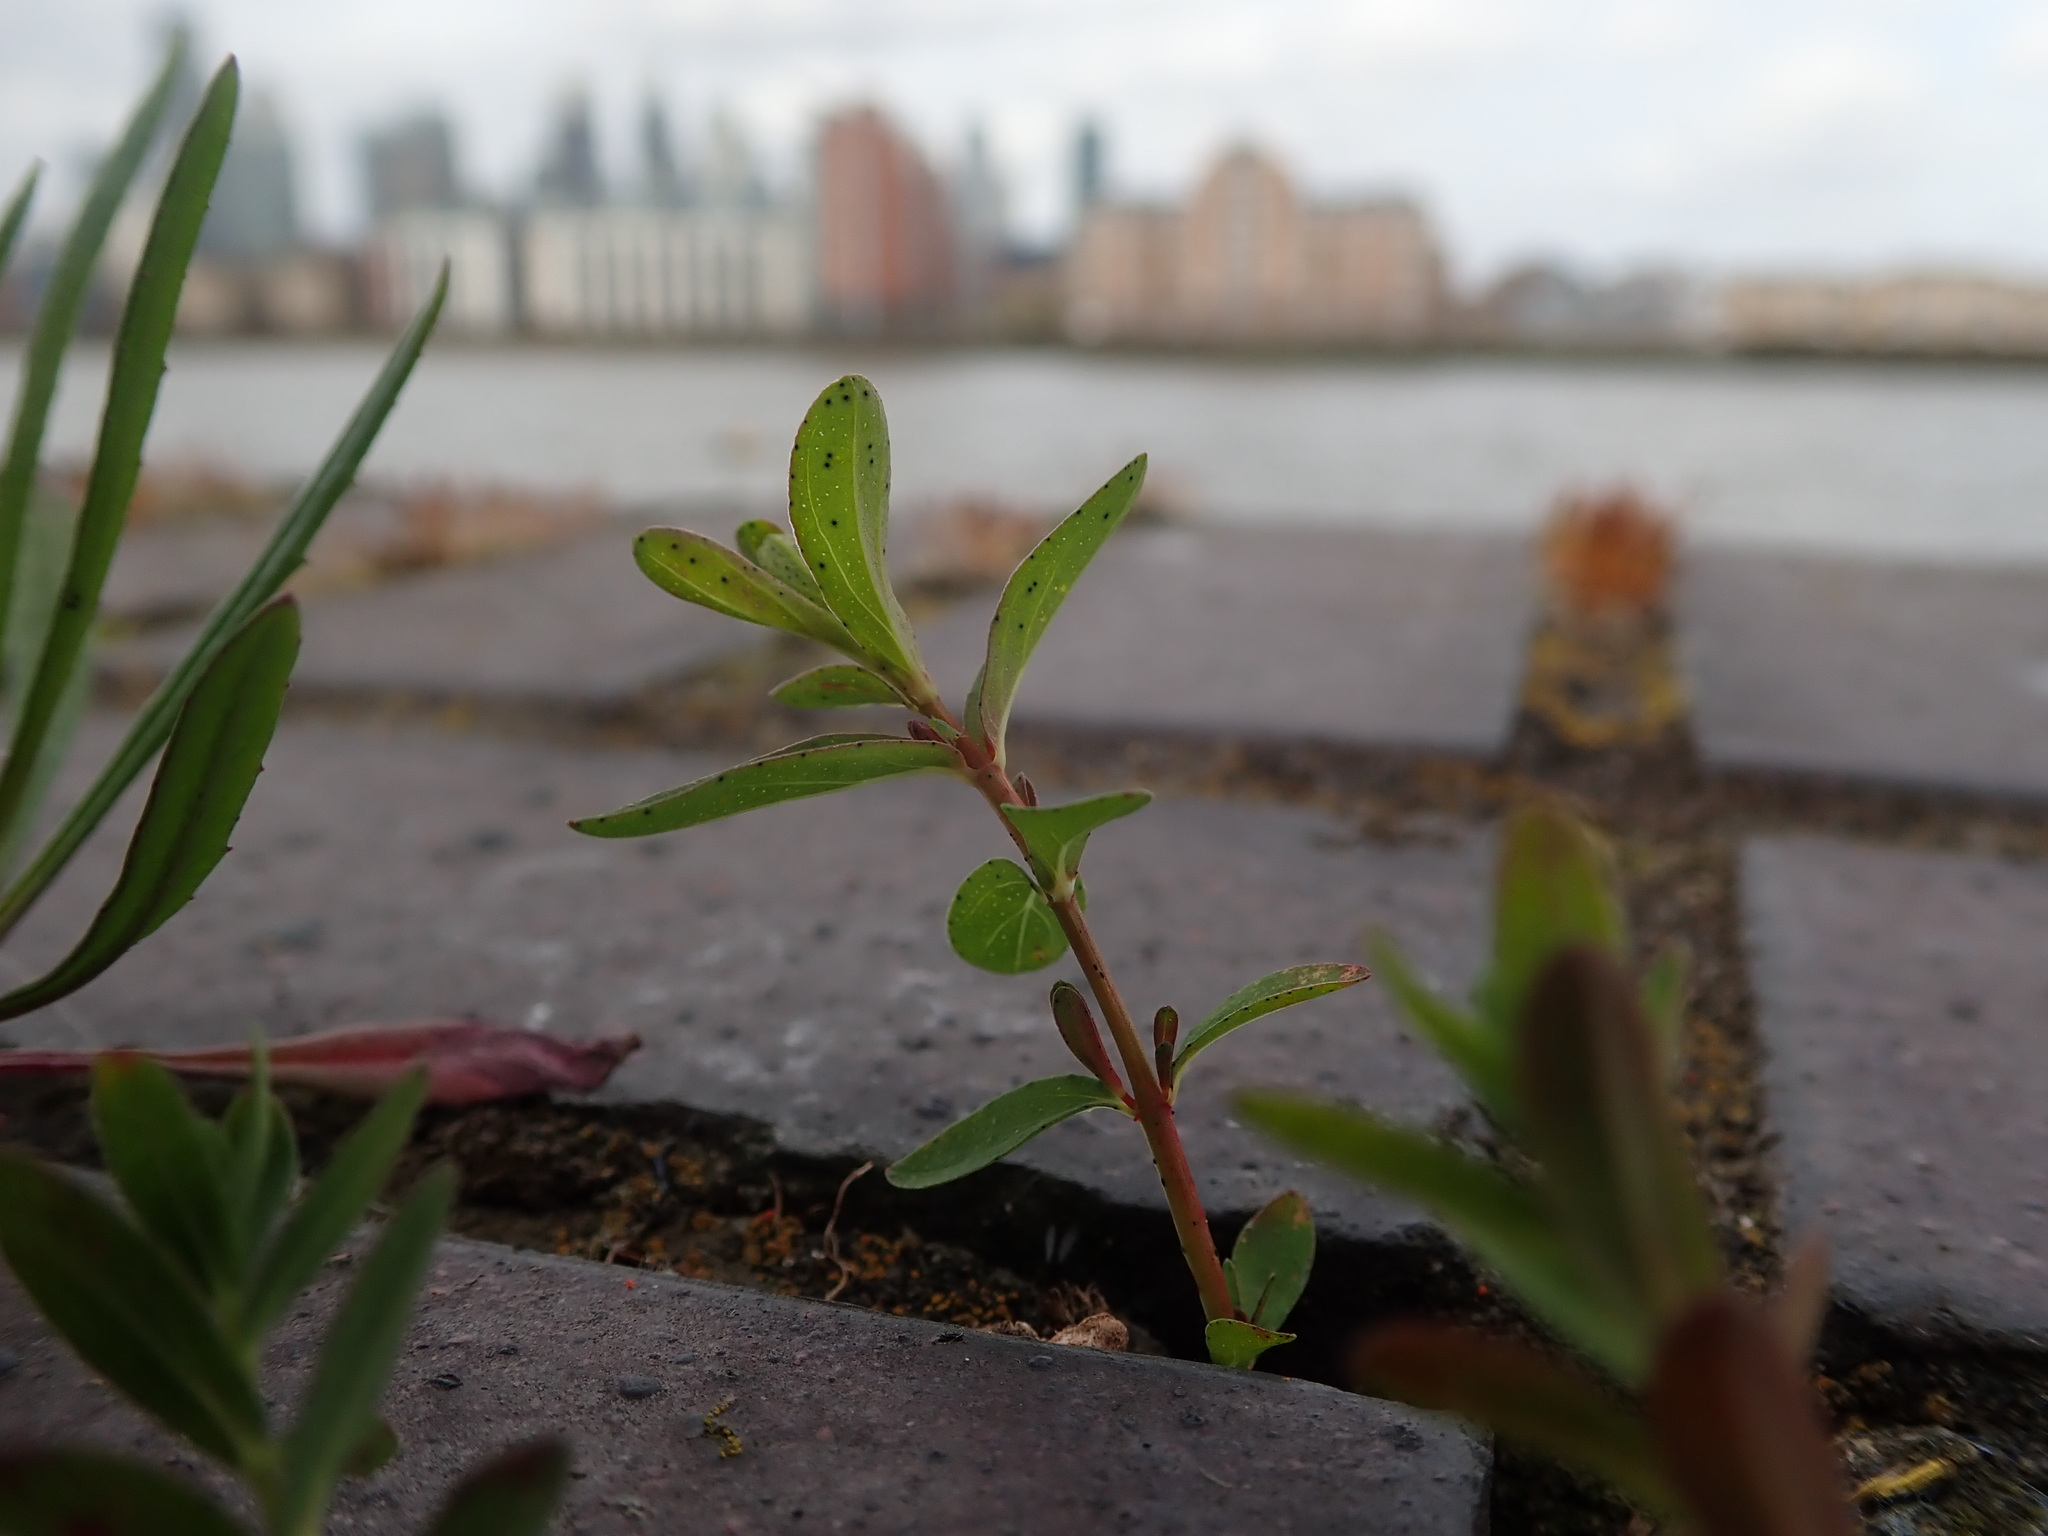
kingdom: Plantae
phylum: Tracheophyta
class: Magnoliopsida
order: Malpighiales
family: Hypericaceae
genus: Hypericum
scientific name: Hypericum perforatum
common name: Common st. johnswort
